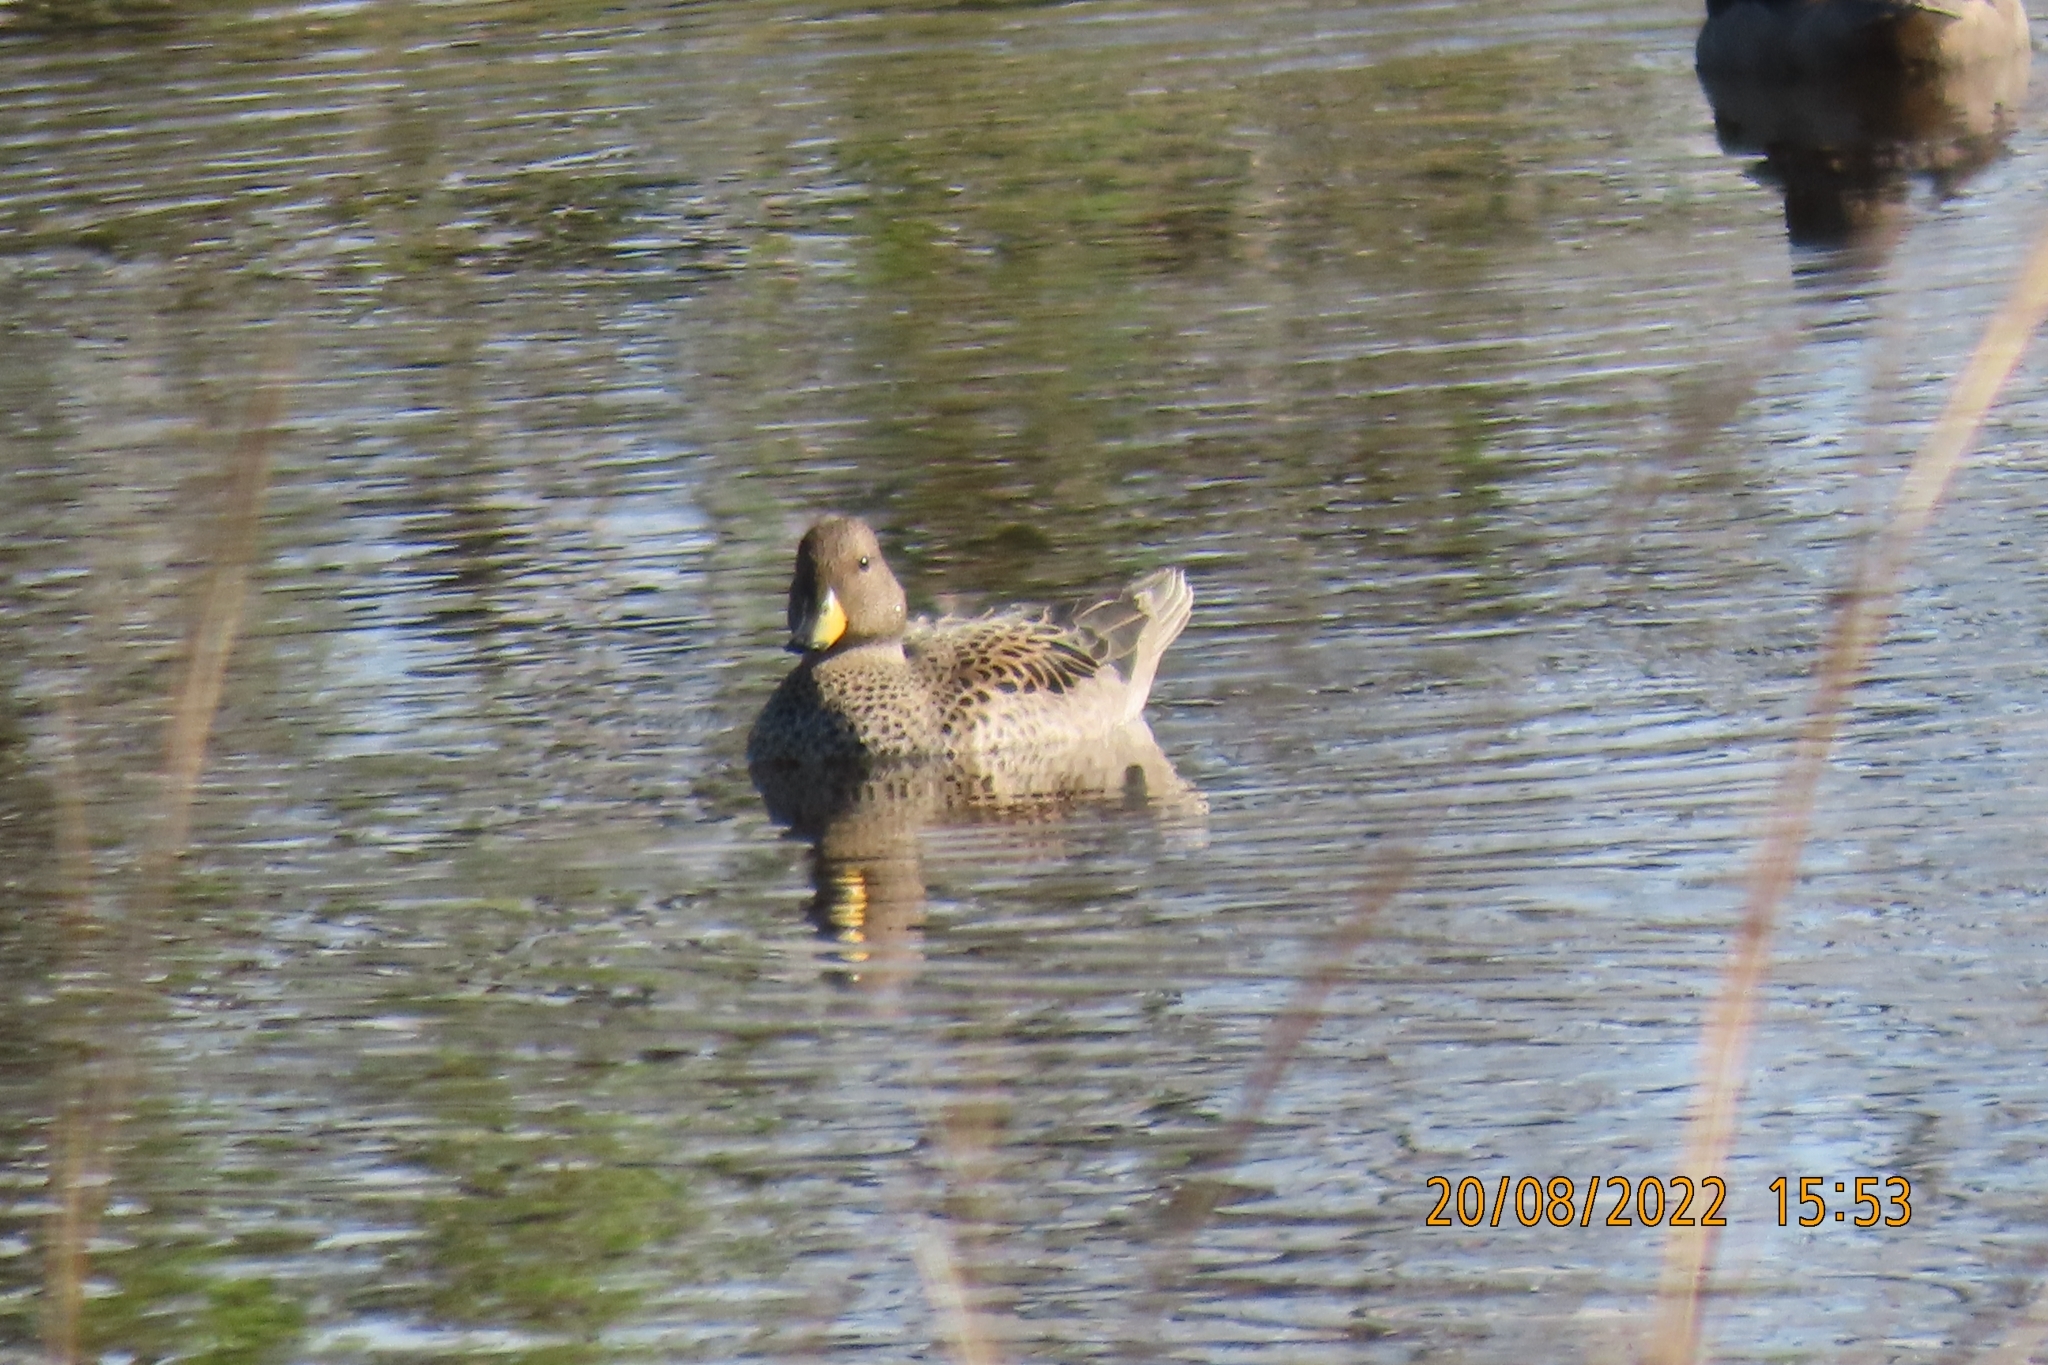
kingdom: Animalia
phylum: Chordata
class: Aves
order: Anseriformes
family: Anatidae
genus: Anas
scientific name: Anas flavirostris
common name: Yellow-billed teal
